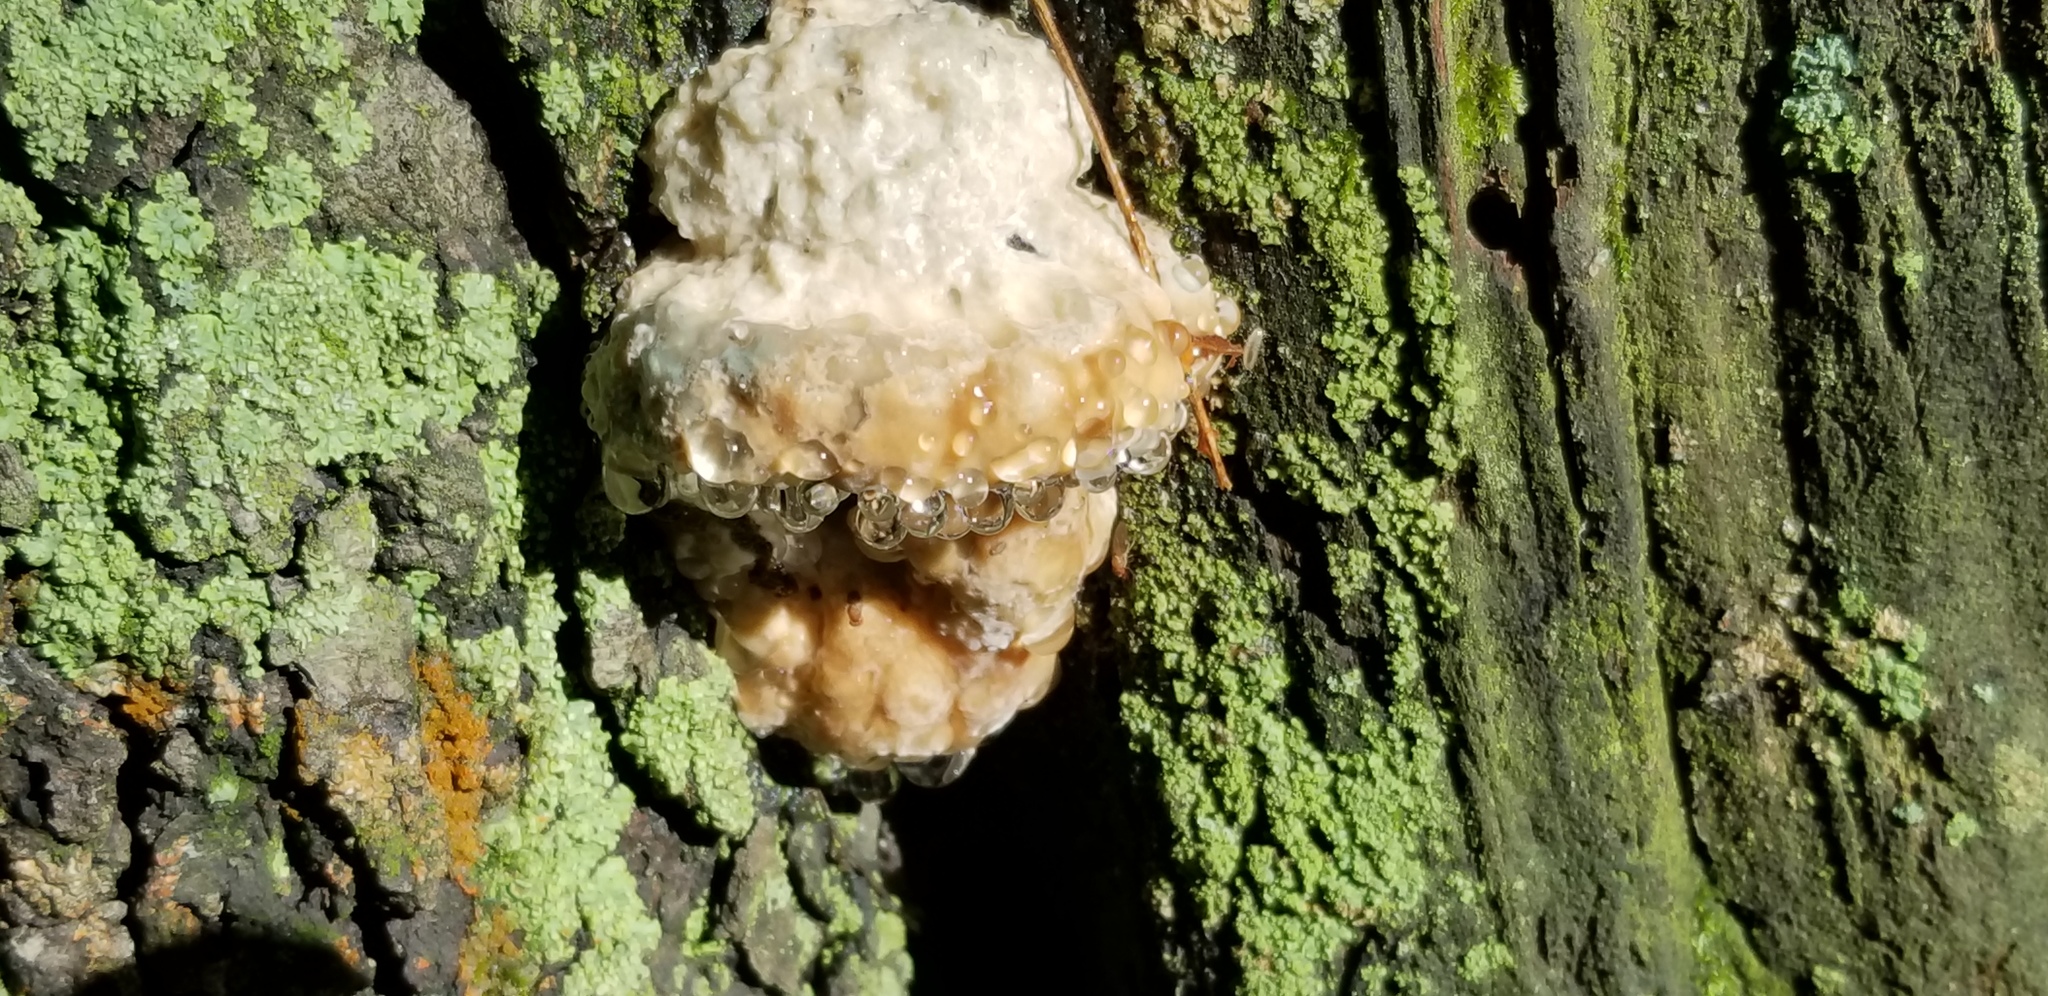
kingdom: Fungi
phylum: Basidiomycota
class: Agaricomycetes
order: Polyporales
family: Fomitopsidaceae
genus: Niveoporofomes
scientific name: Niveoporofomes spraguei
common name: Green cheese polypore
